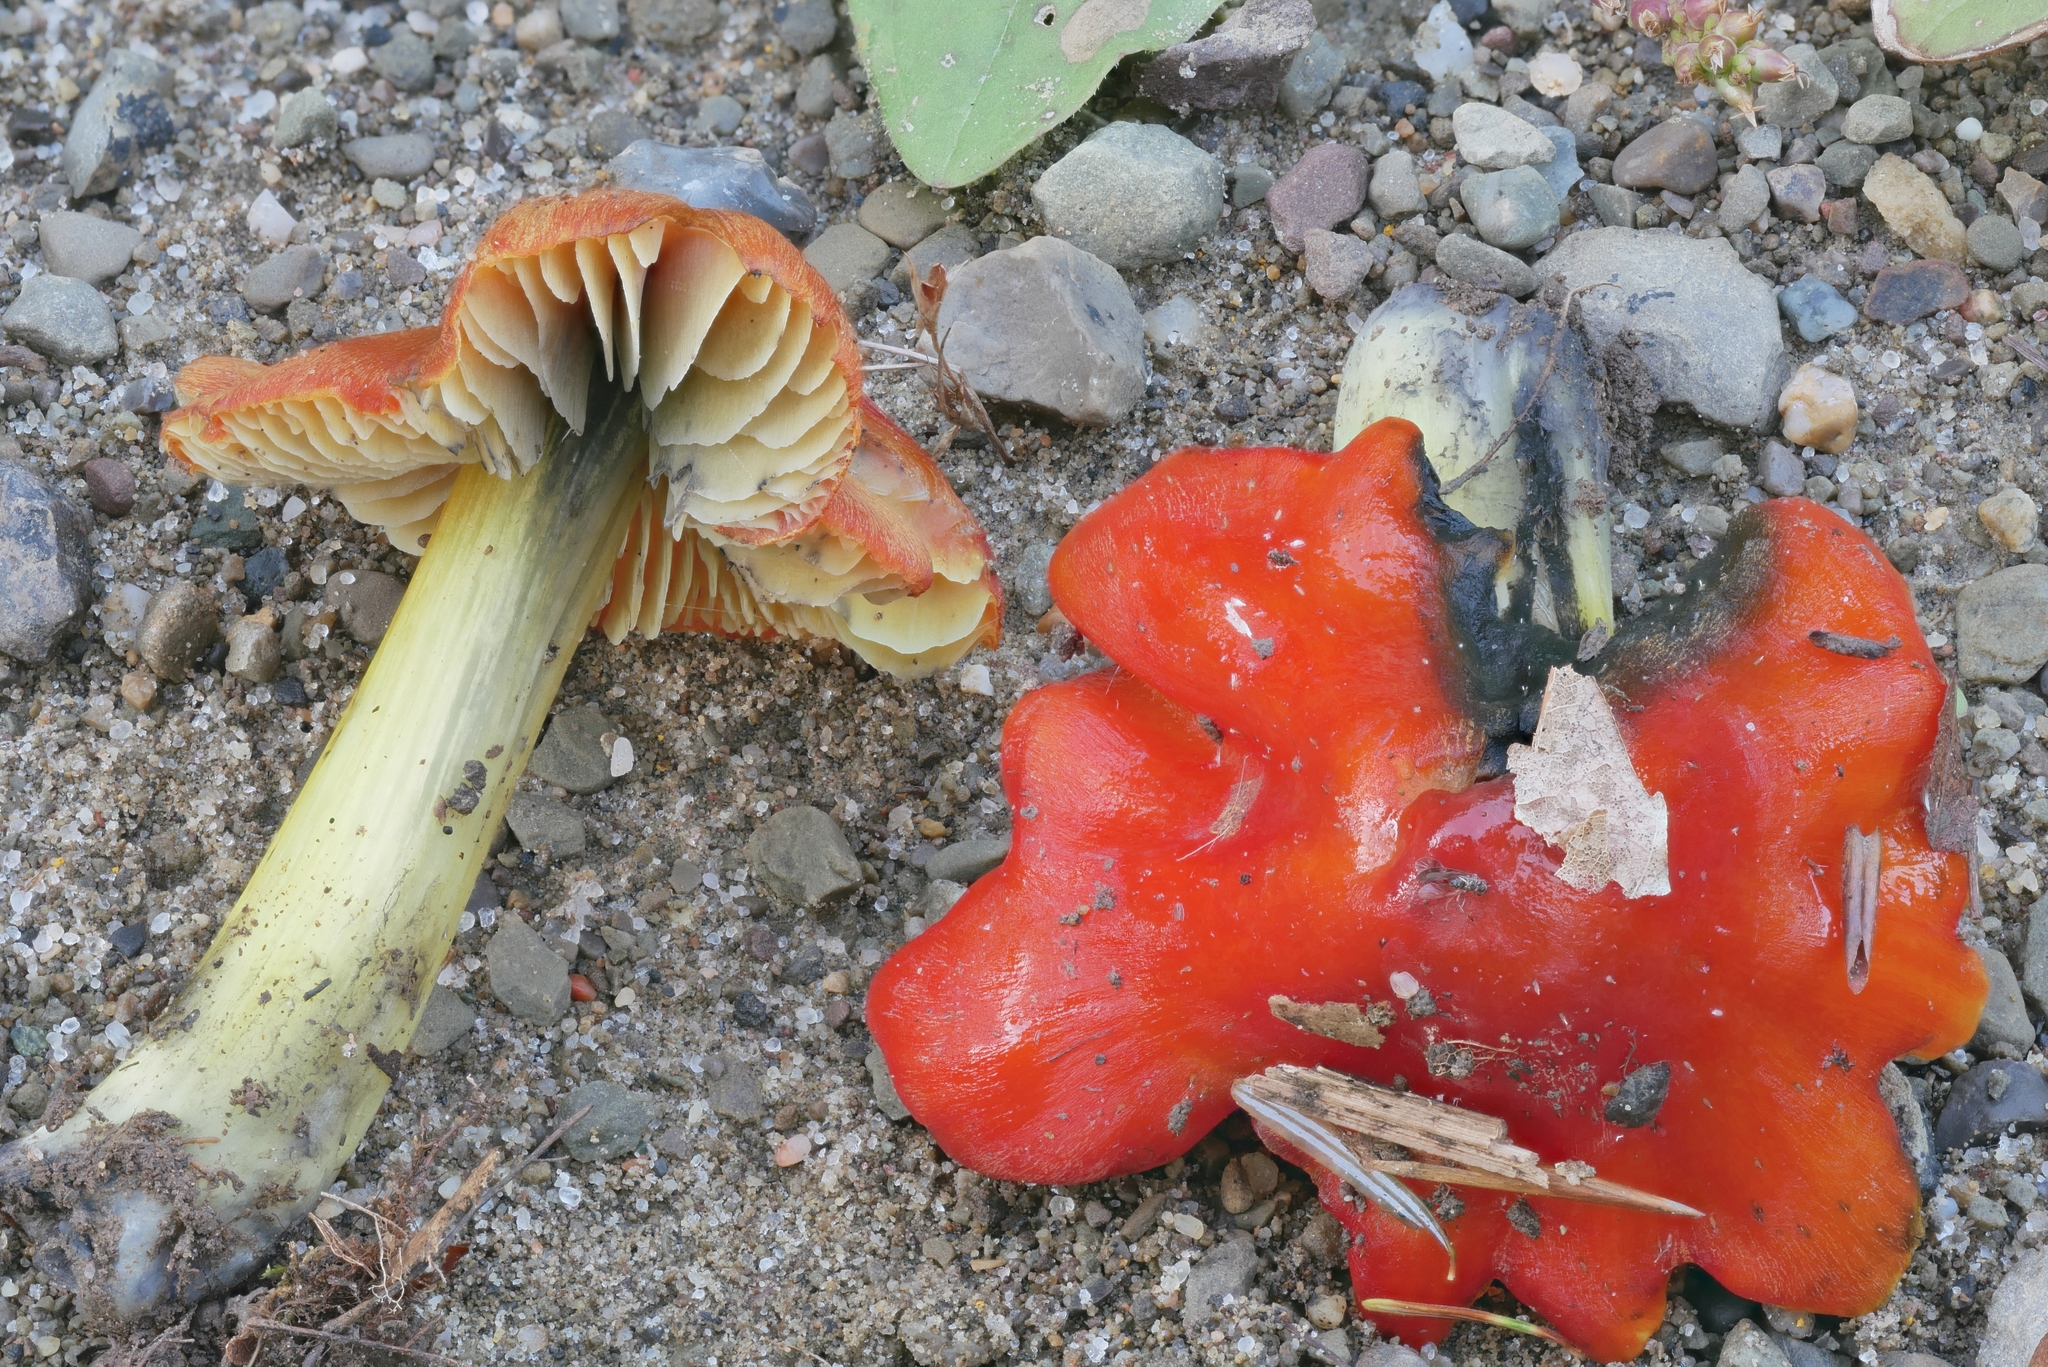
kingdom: Fungi
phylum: Basidiomycota
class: Agaricomycetes
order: Agaricales
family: Hygrophoraceae
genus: Hygrocybe
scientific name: Hygrocybe conica
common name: Blackening wax-cap
